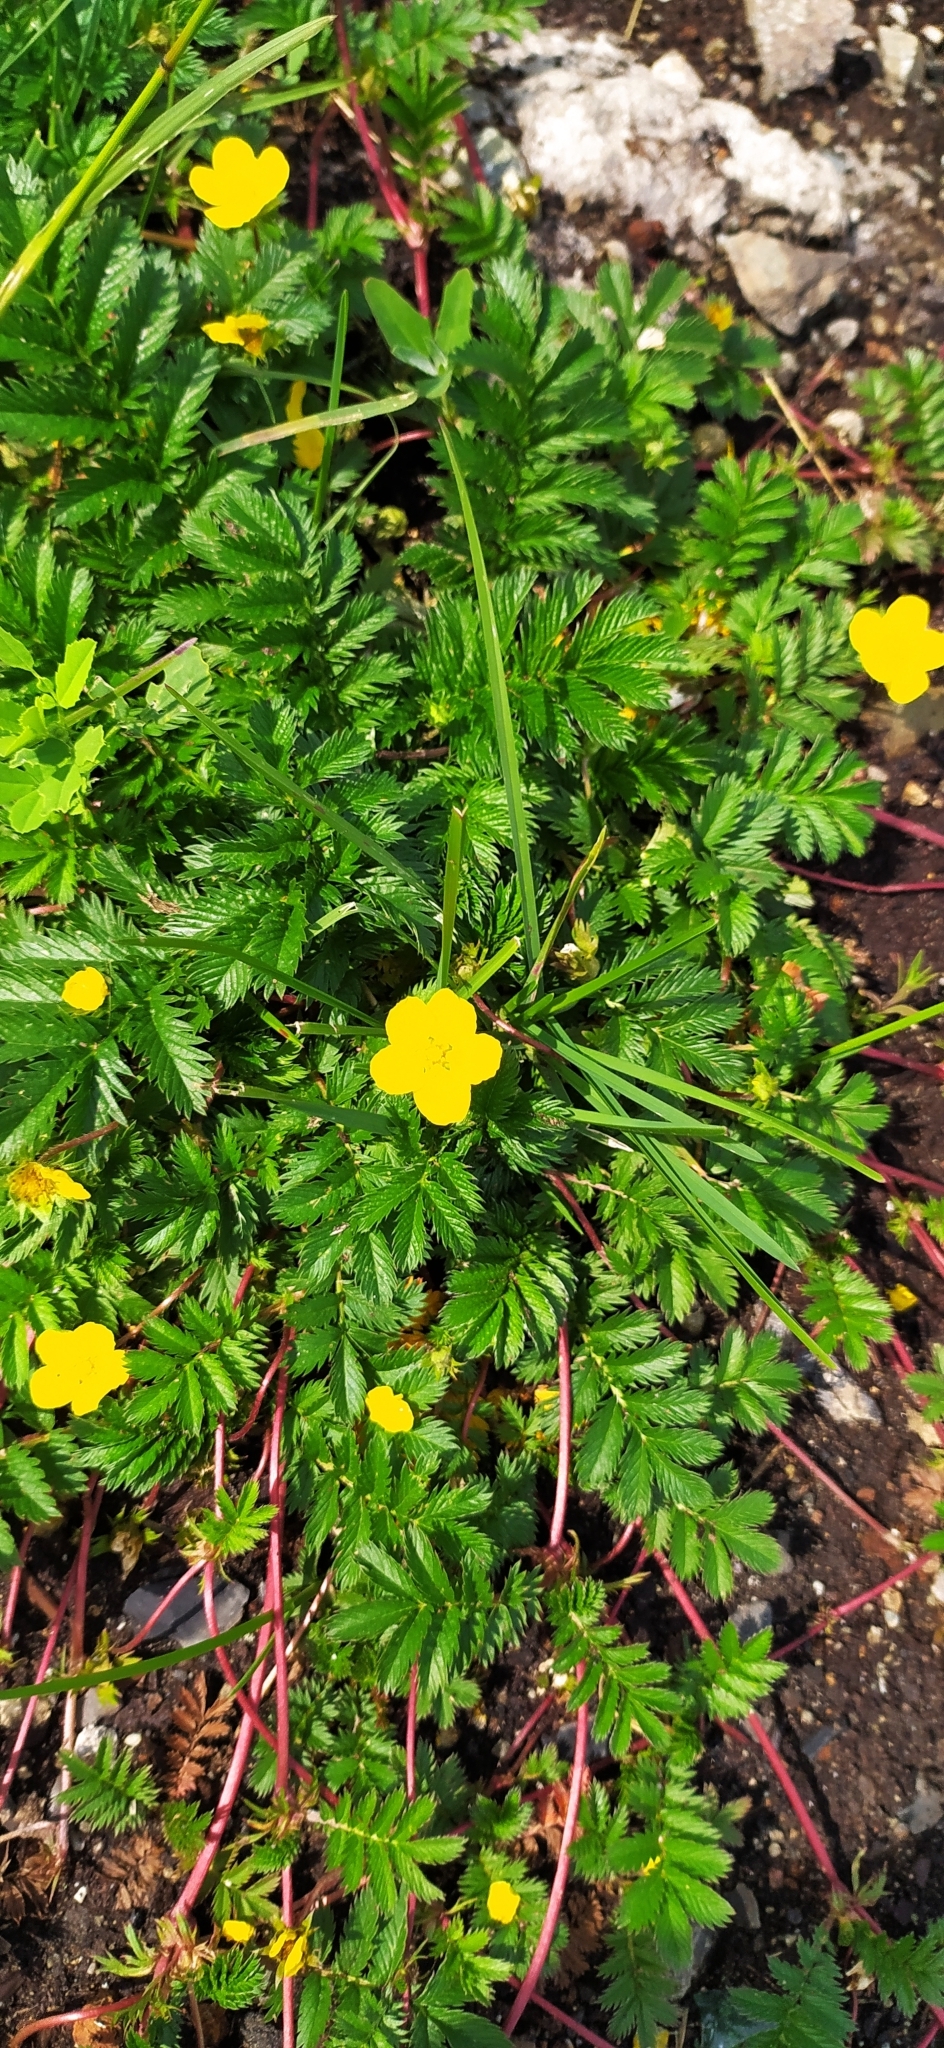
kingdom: Plantae
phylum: Tracheophyta
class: Magnoliopsida
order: Rosales
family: Rosaceae
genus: Argentina
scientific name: Argentina anserina
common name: Common silverweed
